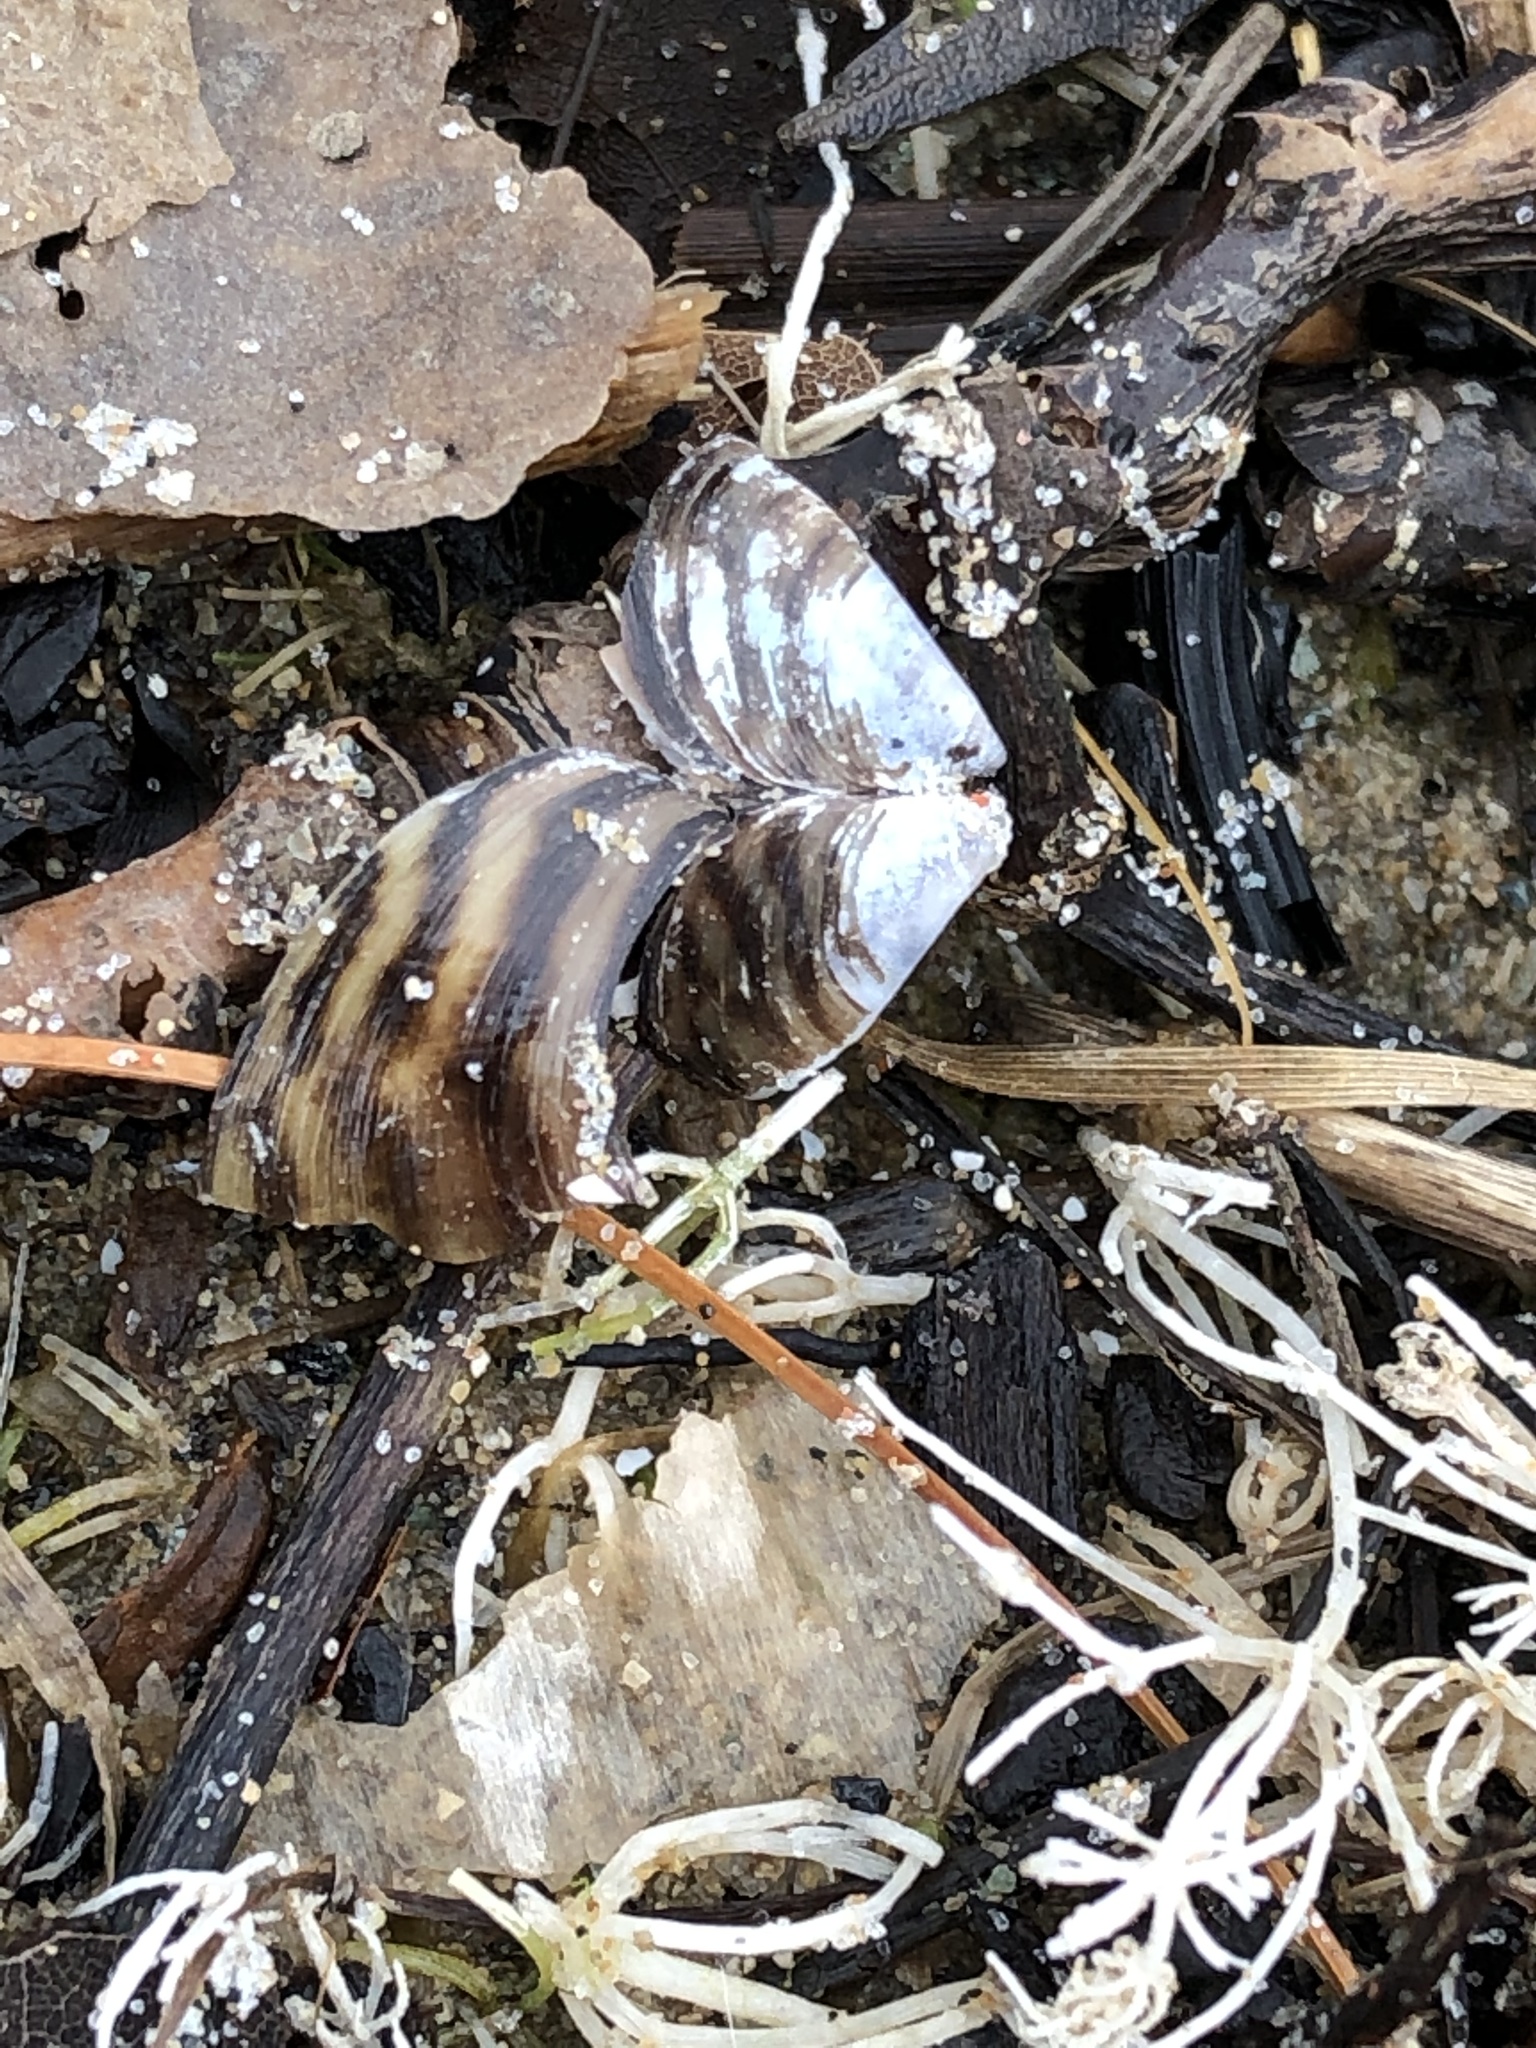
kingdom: Animalia
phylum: Mollusca
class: Bivalvia
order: Myida
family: Dreissenidae
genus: Dreissena
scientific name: Dreissena polymorpha
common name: Zebra mussel
